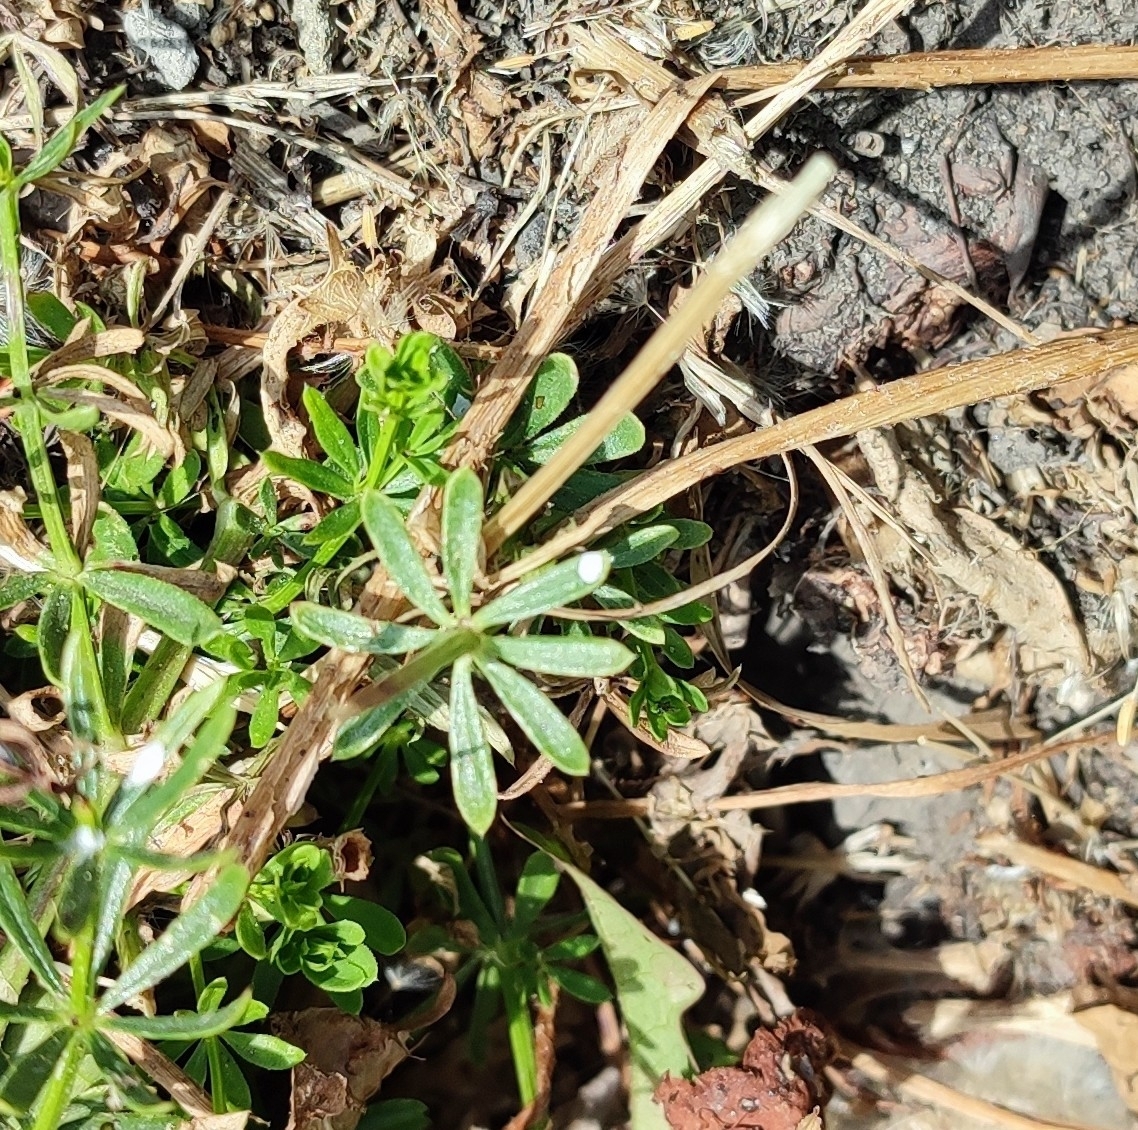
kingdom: Plantae
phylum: Tracheophyta
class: Magnoliopsida
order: Gentianales
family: Rubiaceae
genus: Galium
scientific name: Galium mollugo
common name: Hedge bedstraw
